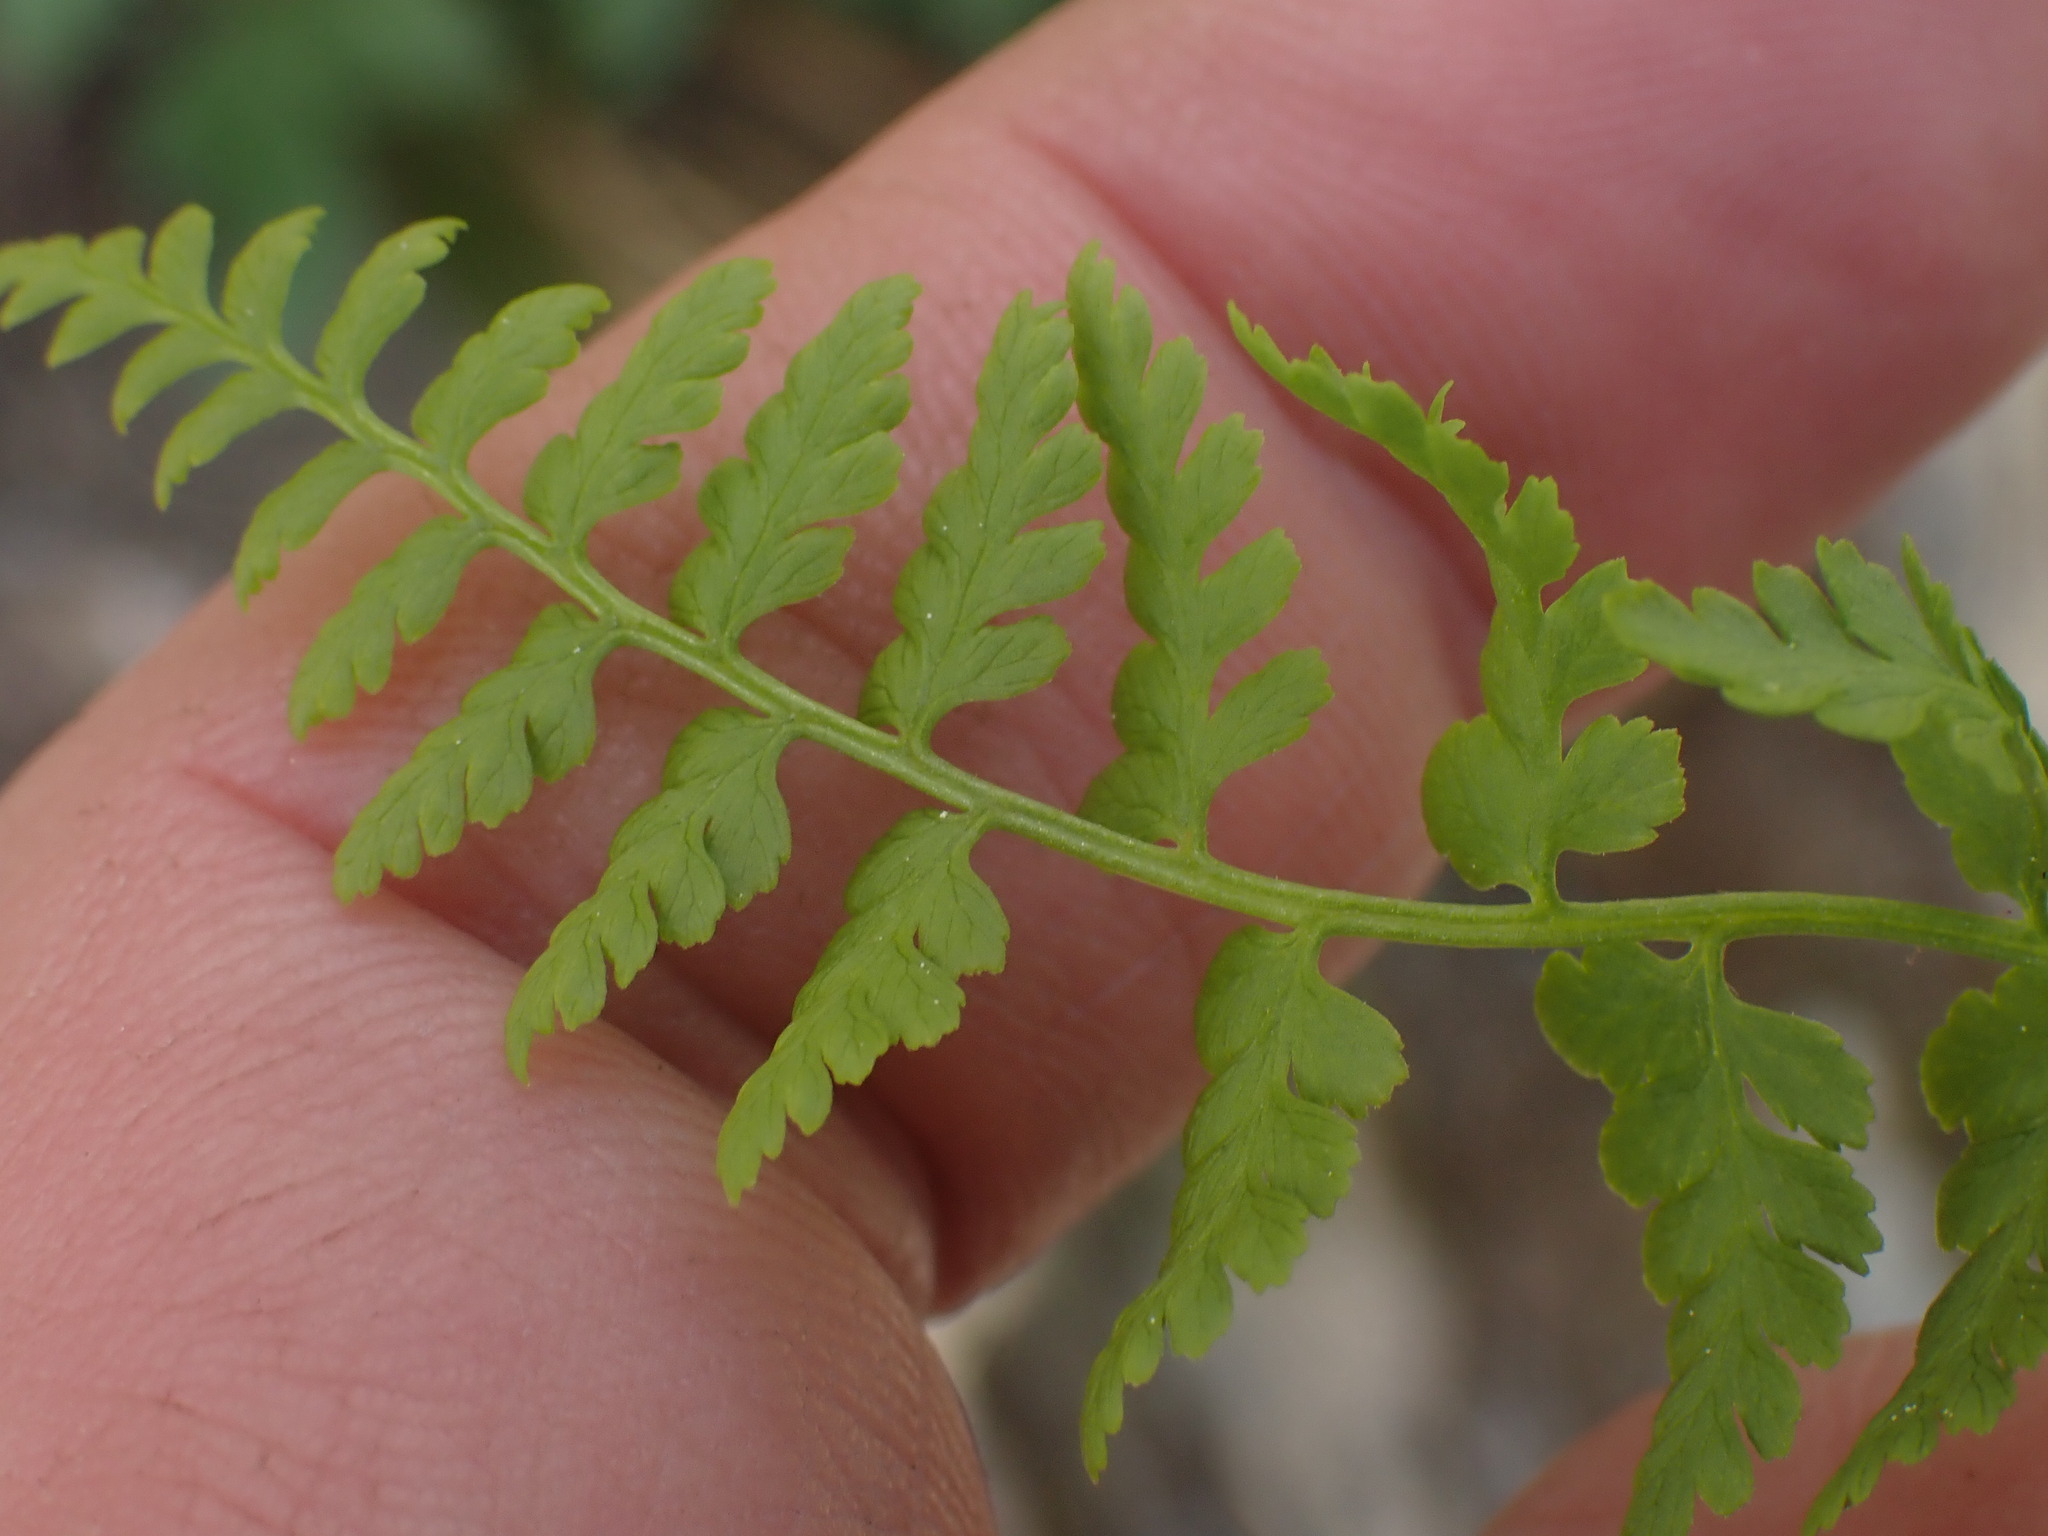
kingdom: Plantae
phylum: Tracheophyta
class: Polypodiopsida
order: Polypodiales
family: Cystopteridaceae
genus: Cystopteris
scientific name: Cystopteris fragilis
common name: Brittle bladder fern
